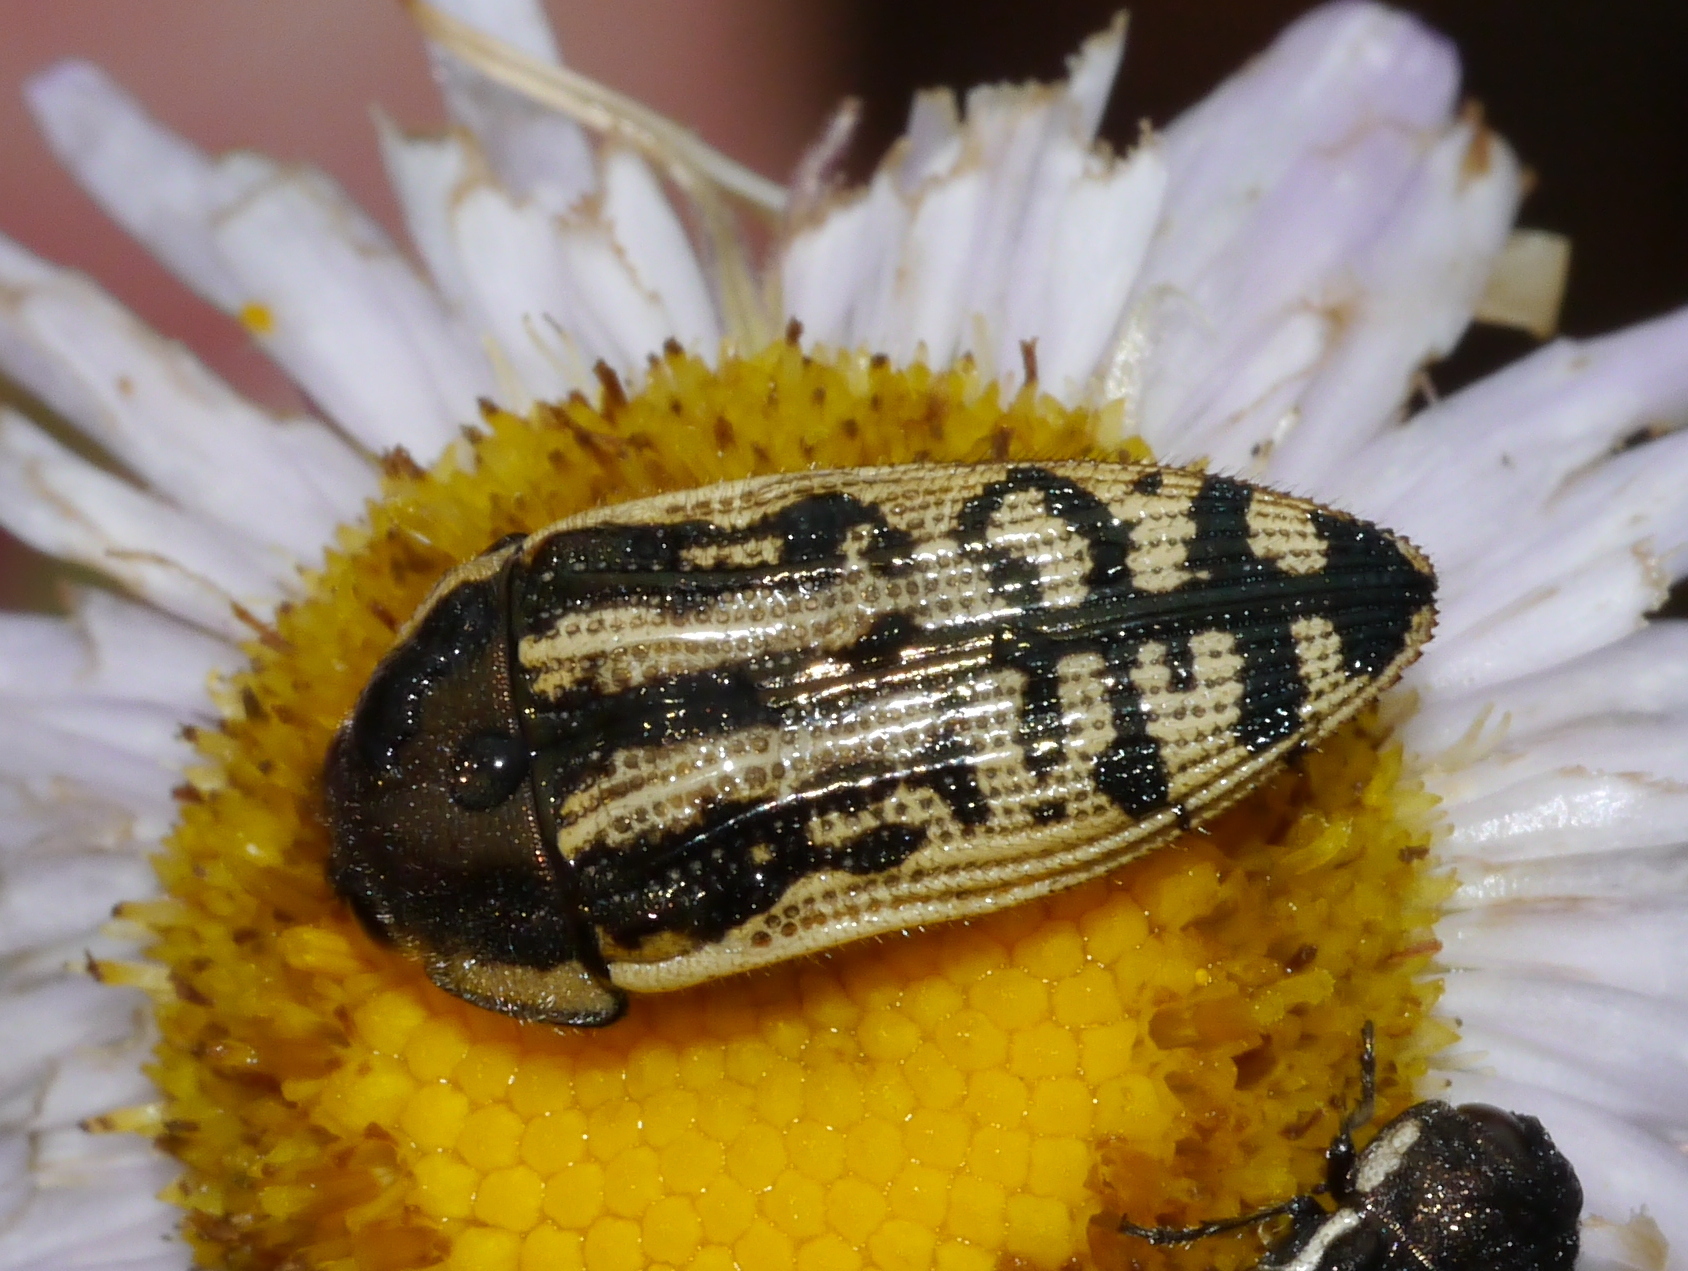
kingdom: Animalia
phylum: Arthropoda
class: Insecta
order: Coleoptera
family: Buprestidae
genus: Acmaeodera
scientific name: Acmaeodera amplicollis
